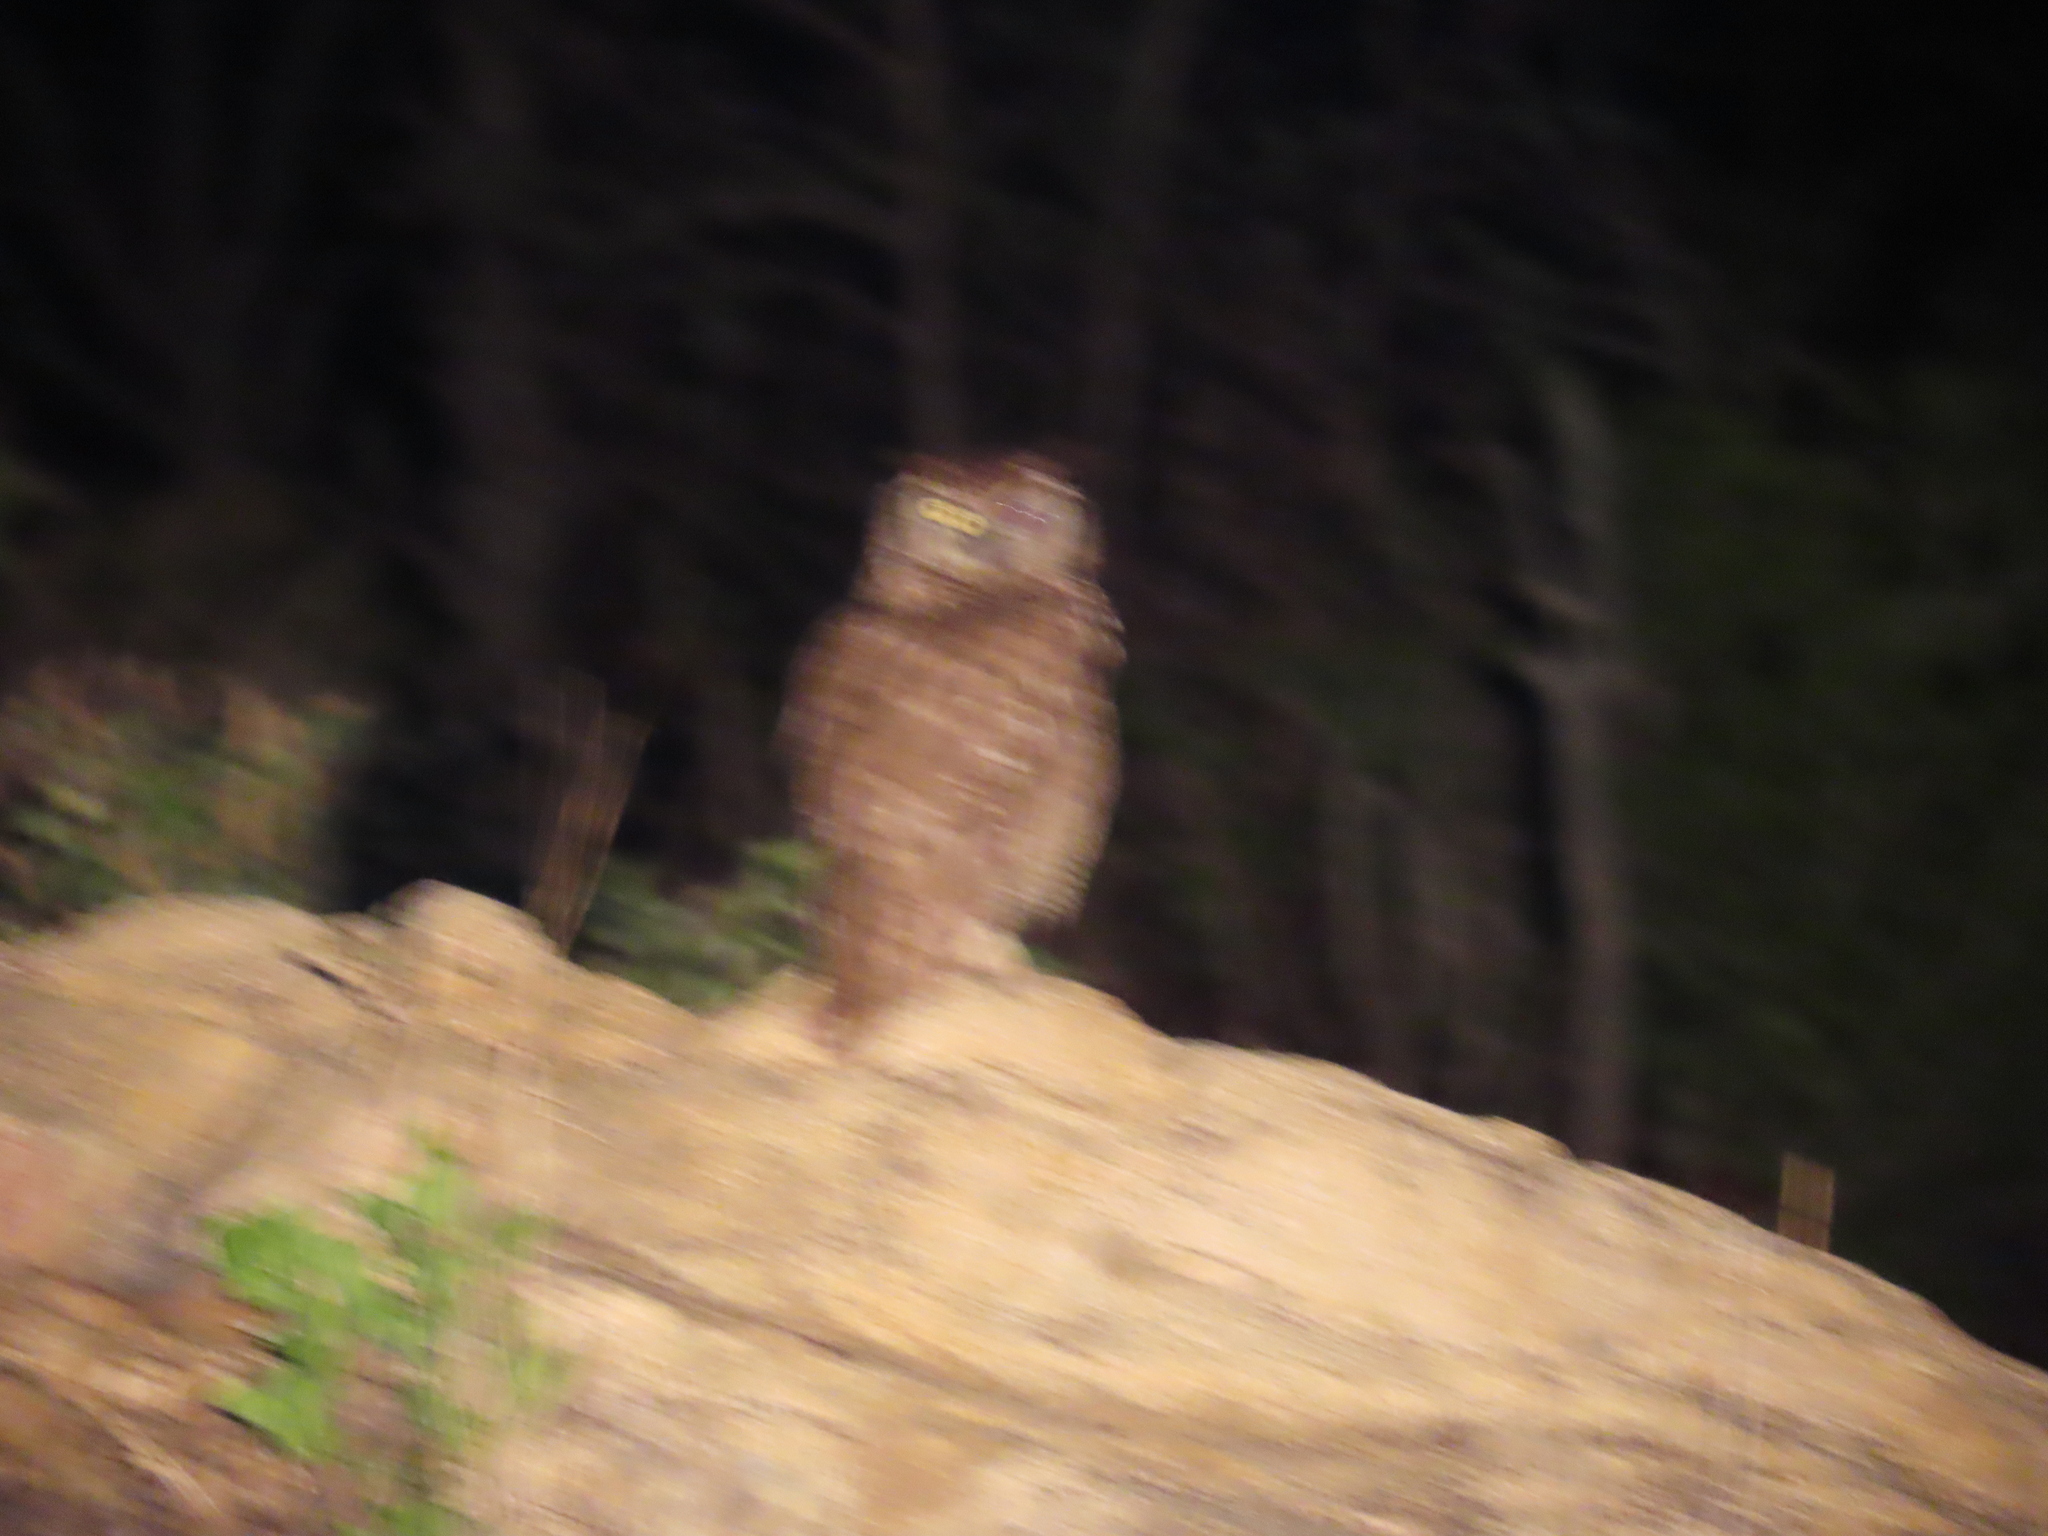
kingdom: Animalia
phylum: Chordata
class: Aves
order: Strigiformes
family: Strigidae
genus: Bubo
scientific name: Bubo africanus
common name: Spotted eagle-owl
